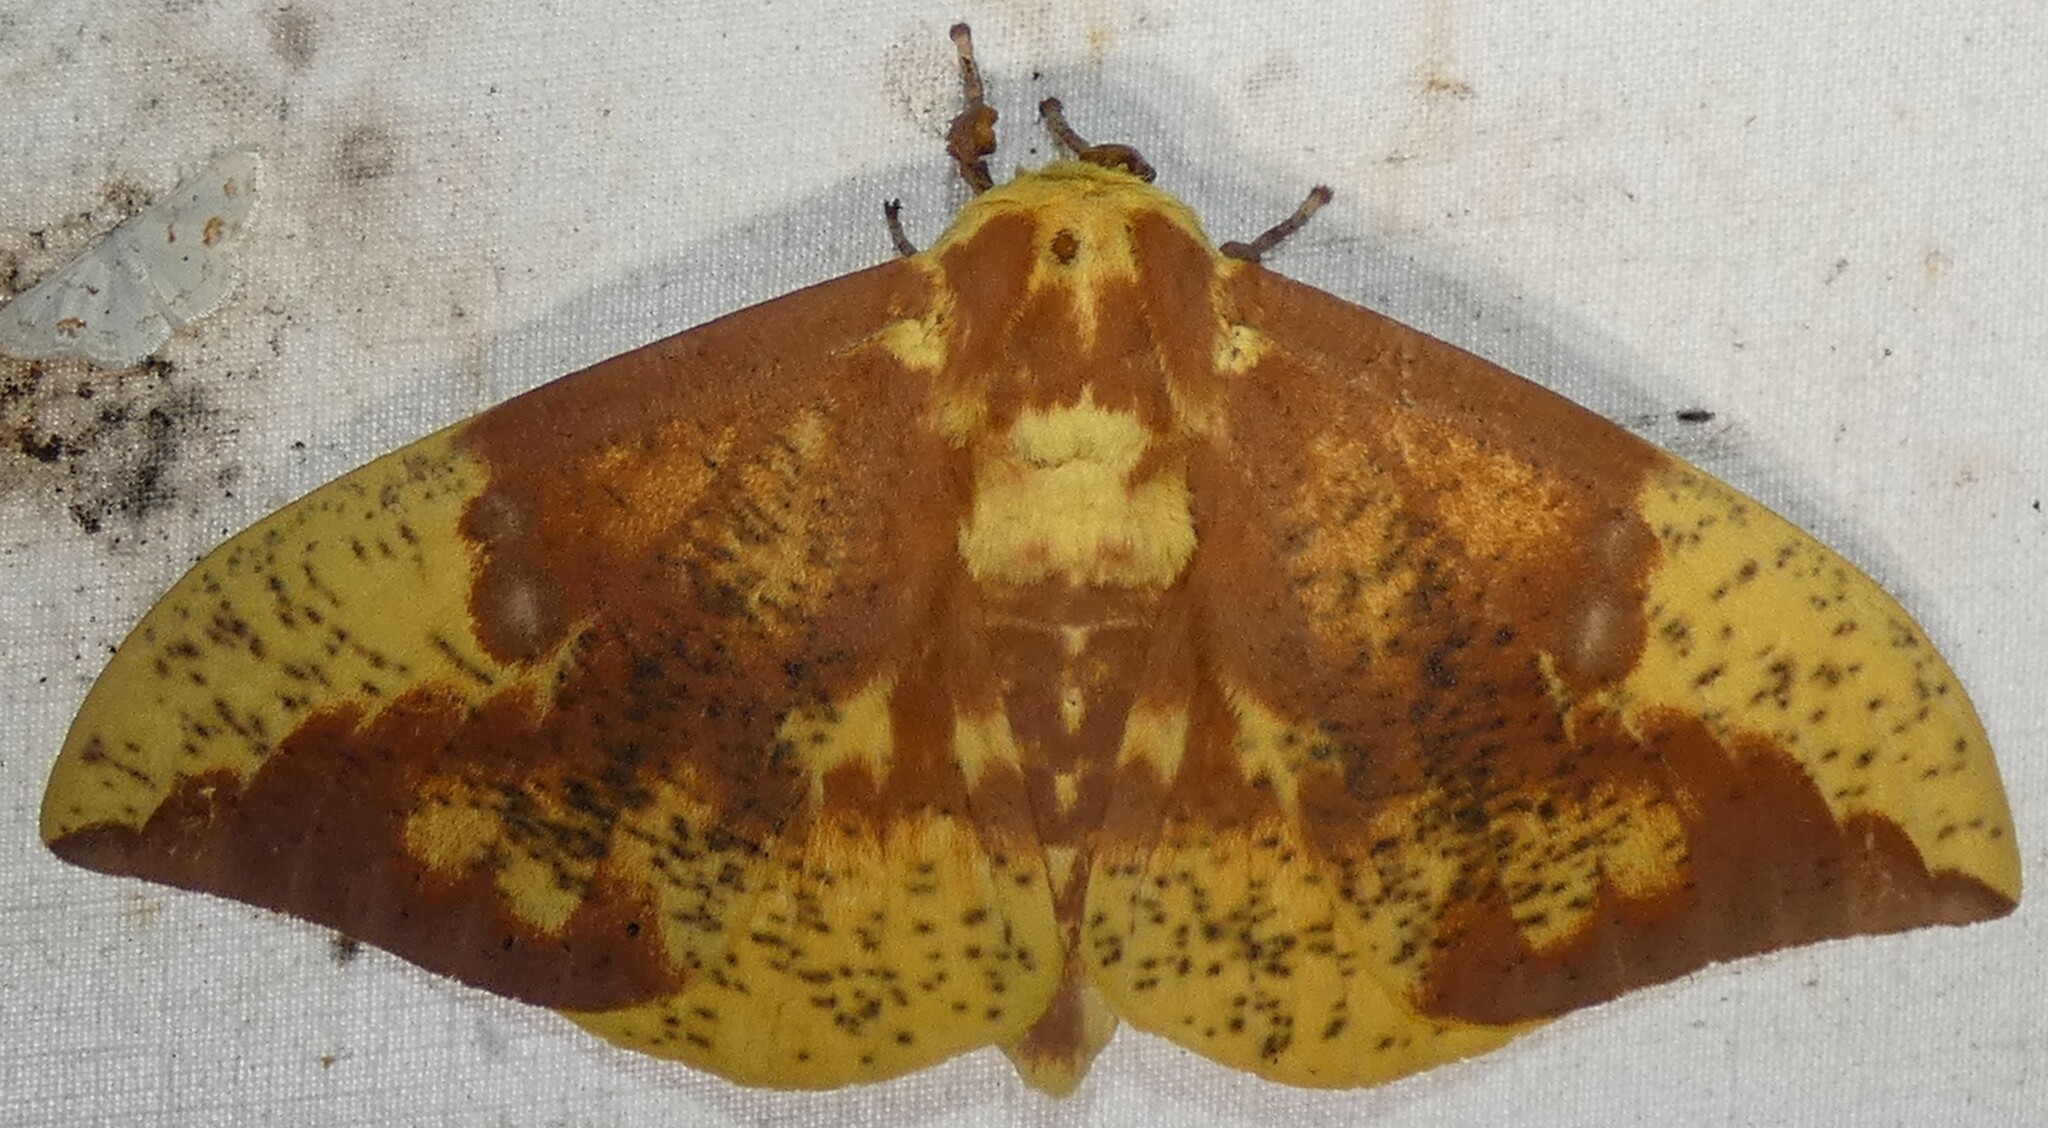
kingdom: Animalia
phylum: Arthropoda
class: Insecta
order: Lepidoptera
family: Saturniidae
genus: Eacles
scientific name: Eacles imperialis
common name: Imperial moth
